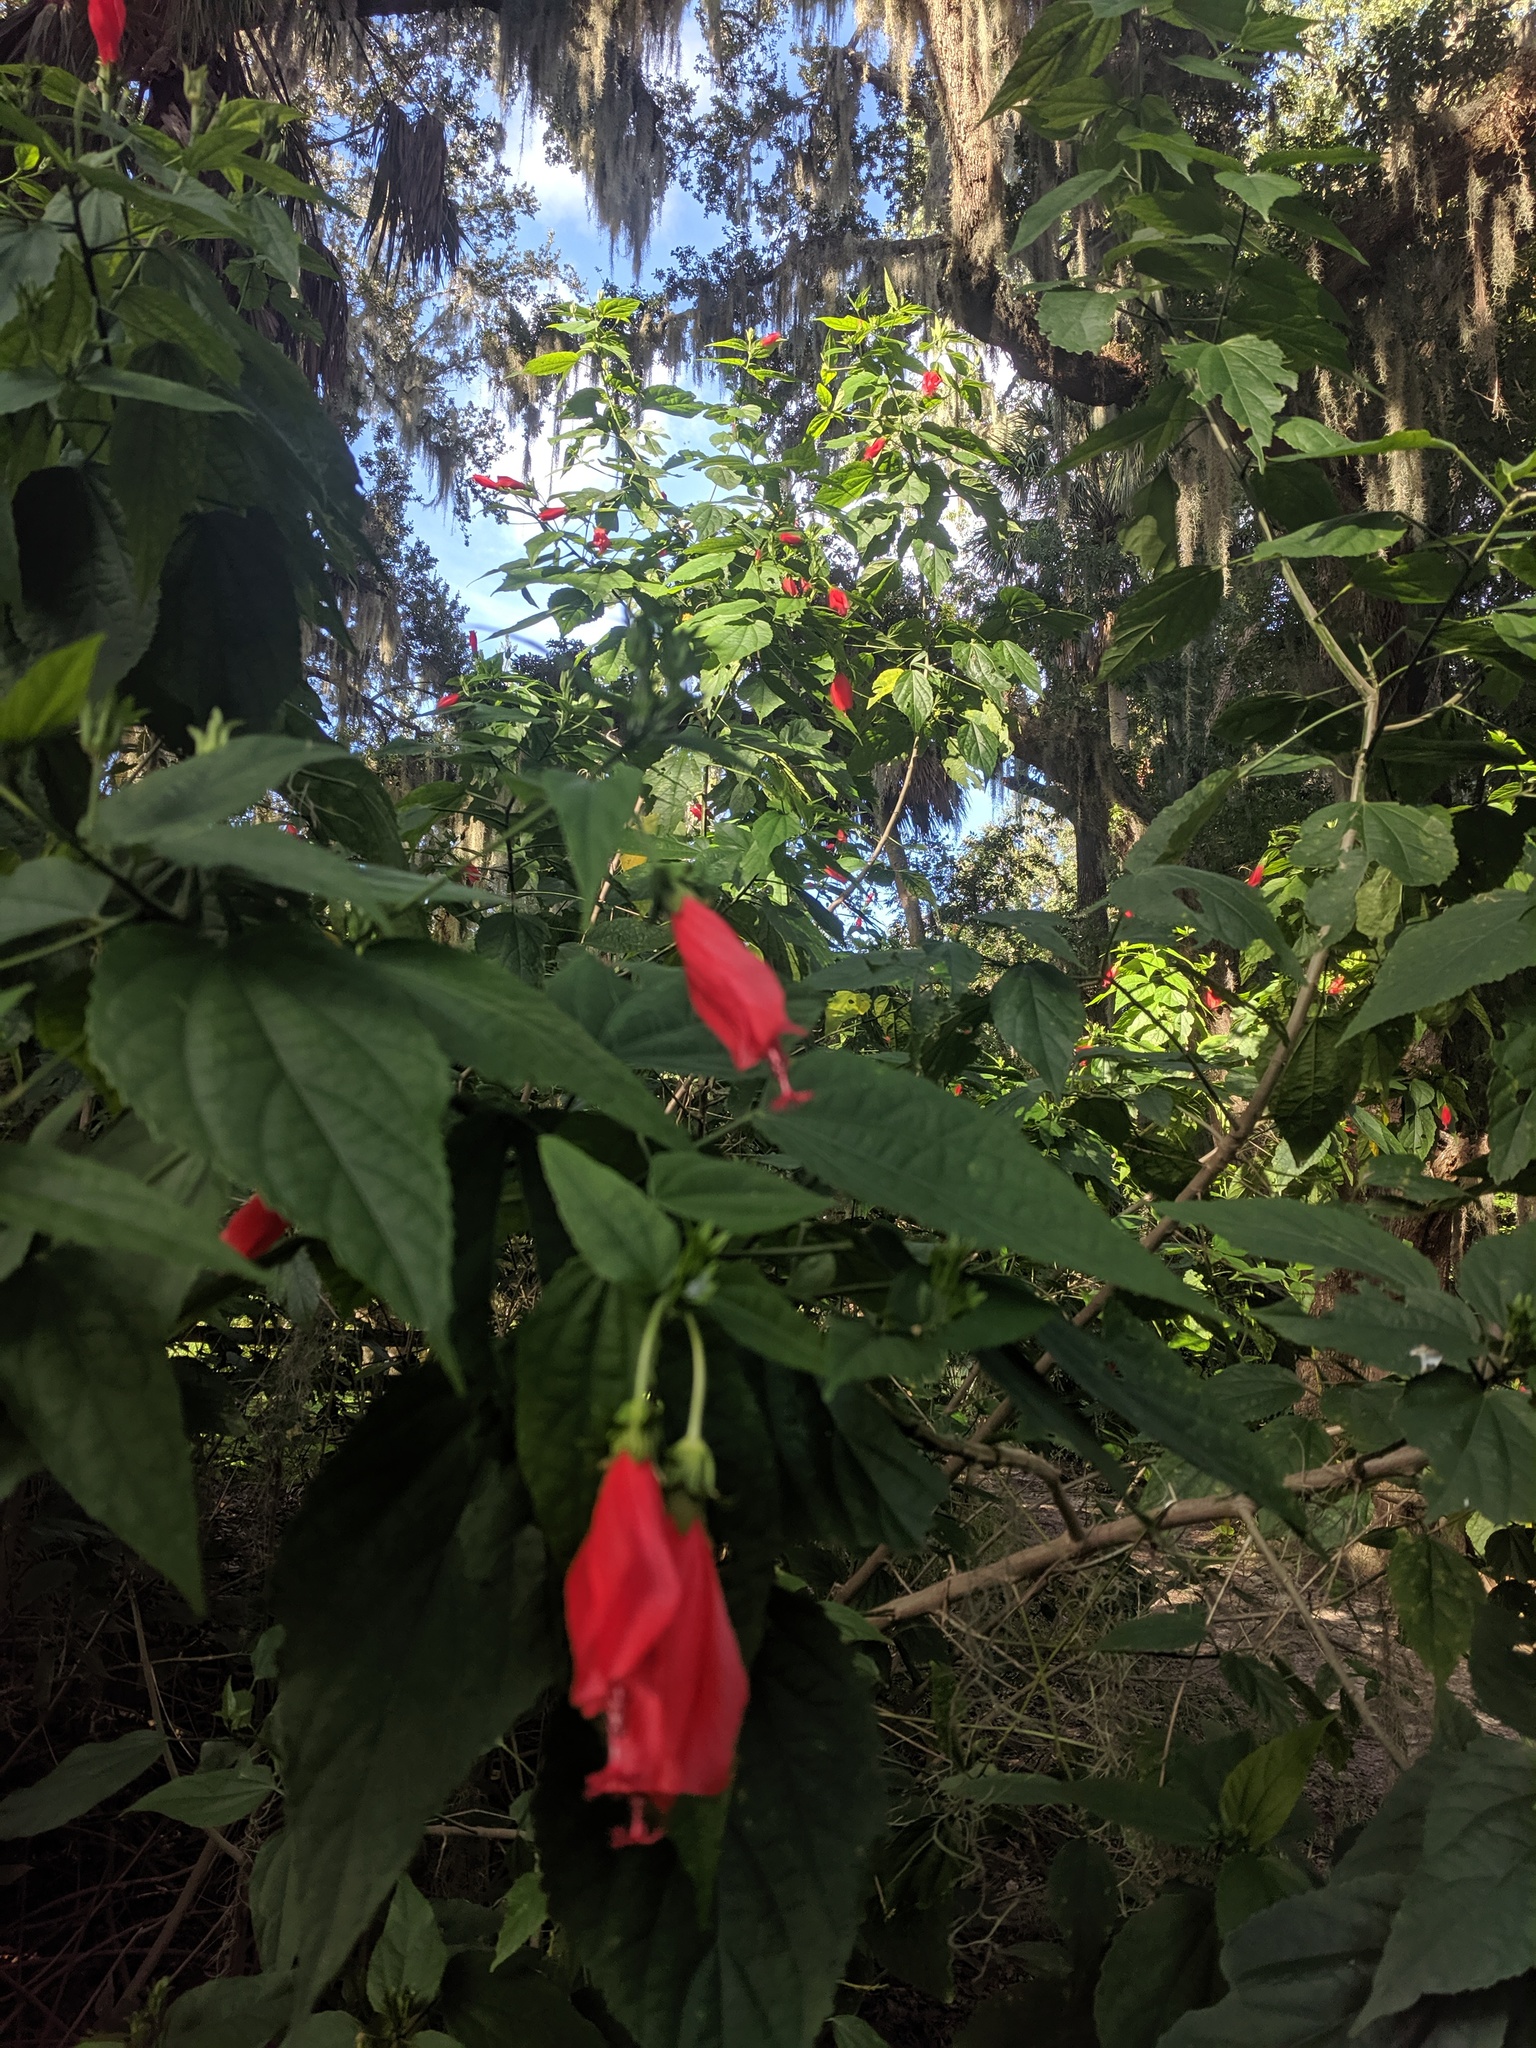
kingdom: Plantae
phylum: Tracheophyta
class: Magnoliopsida
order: Malvales
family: Malvaceae
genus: Malvaviscus
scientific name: Malvaviscus penduliflorus
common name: Mazapan
